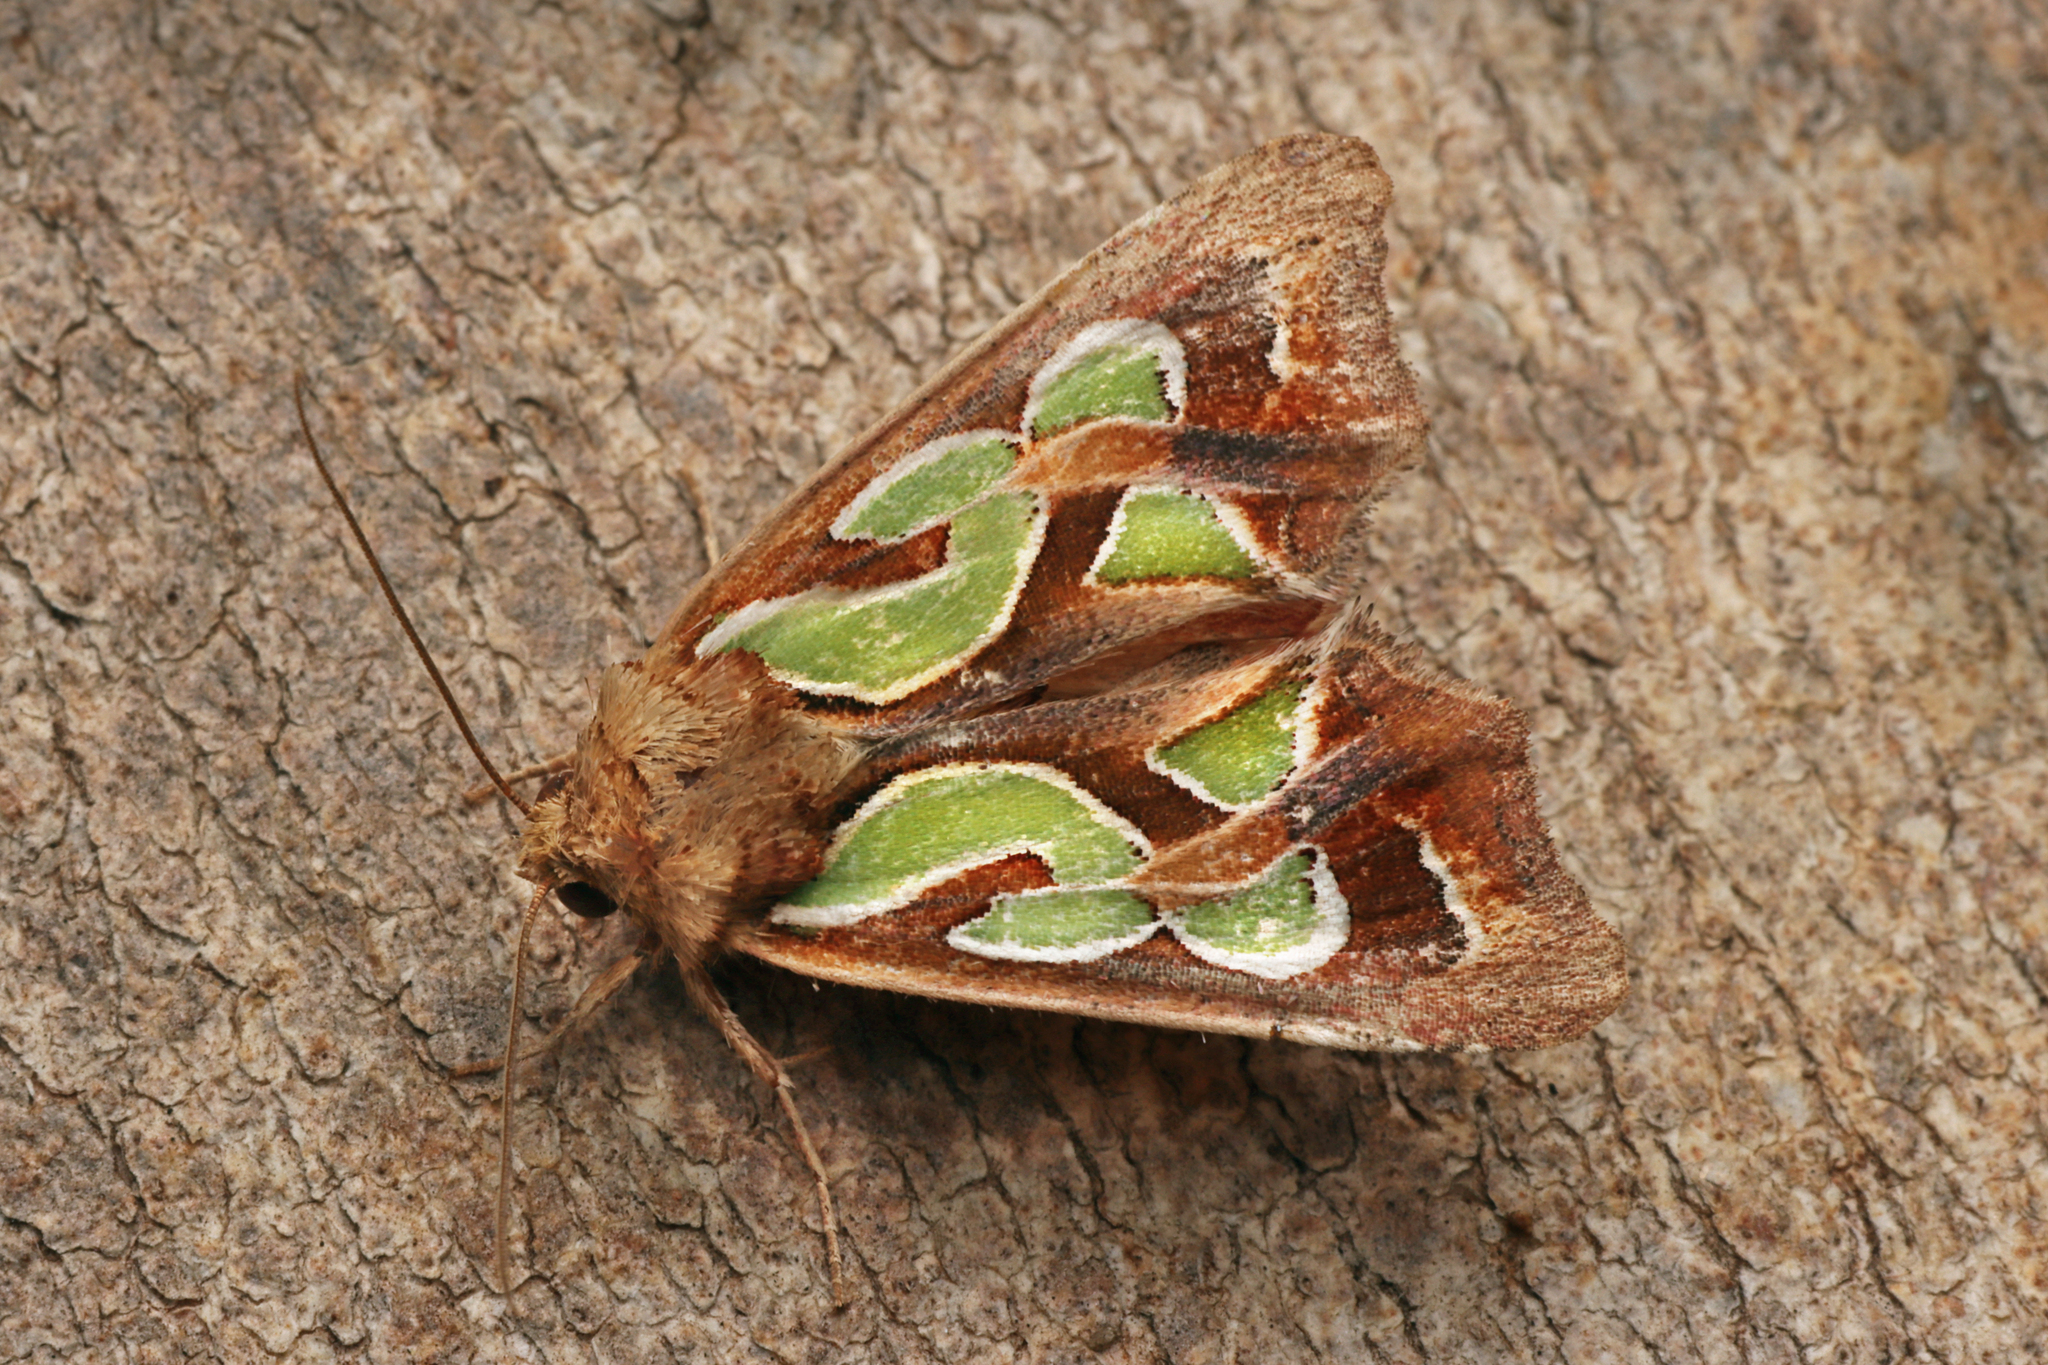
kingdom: Animalia
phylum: Arthropoda
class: Insecta
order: Lepidoptera
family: Noctuidae
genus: Cosmodes
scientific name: Cosmodes elegans
